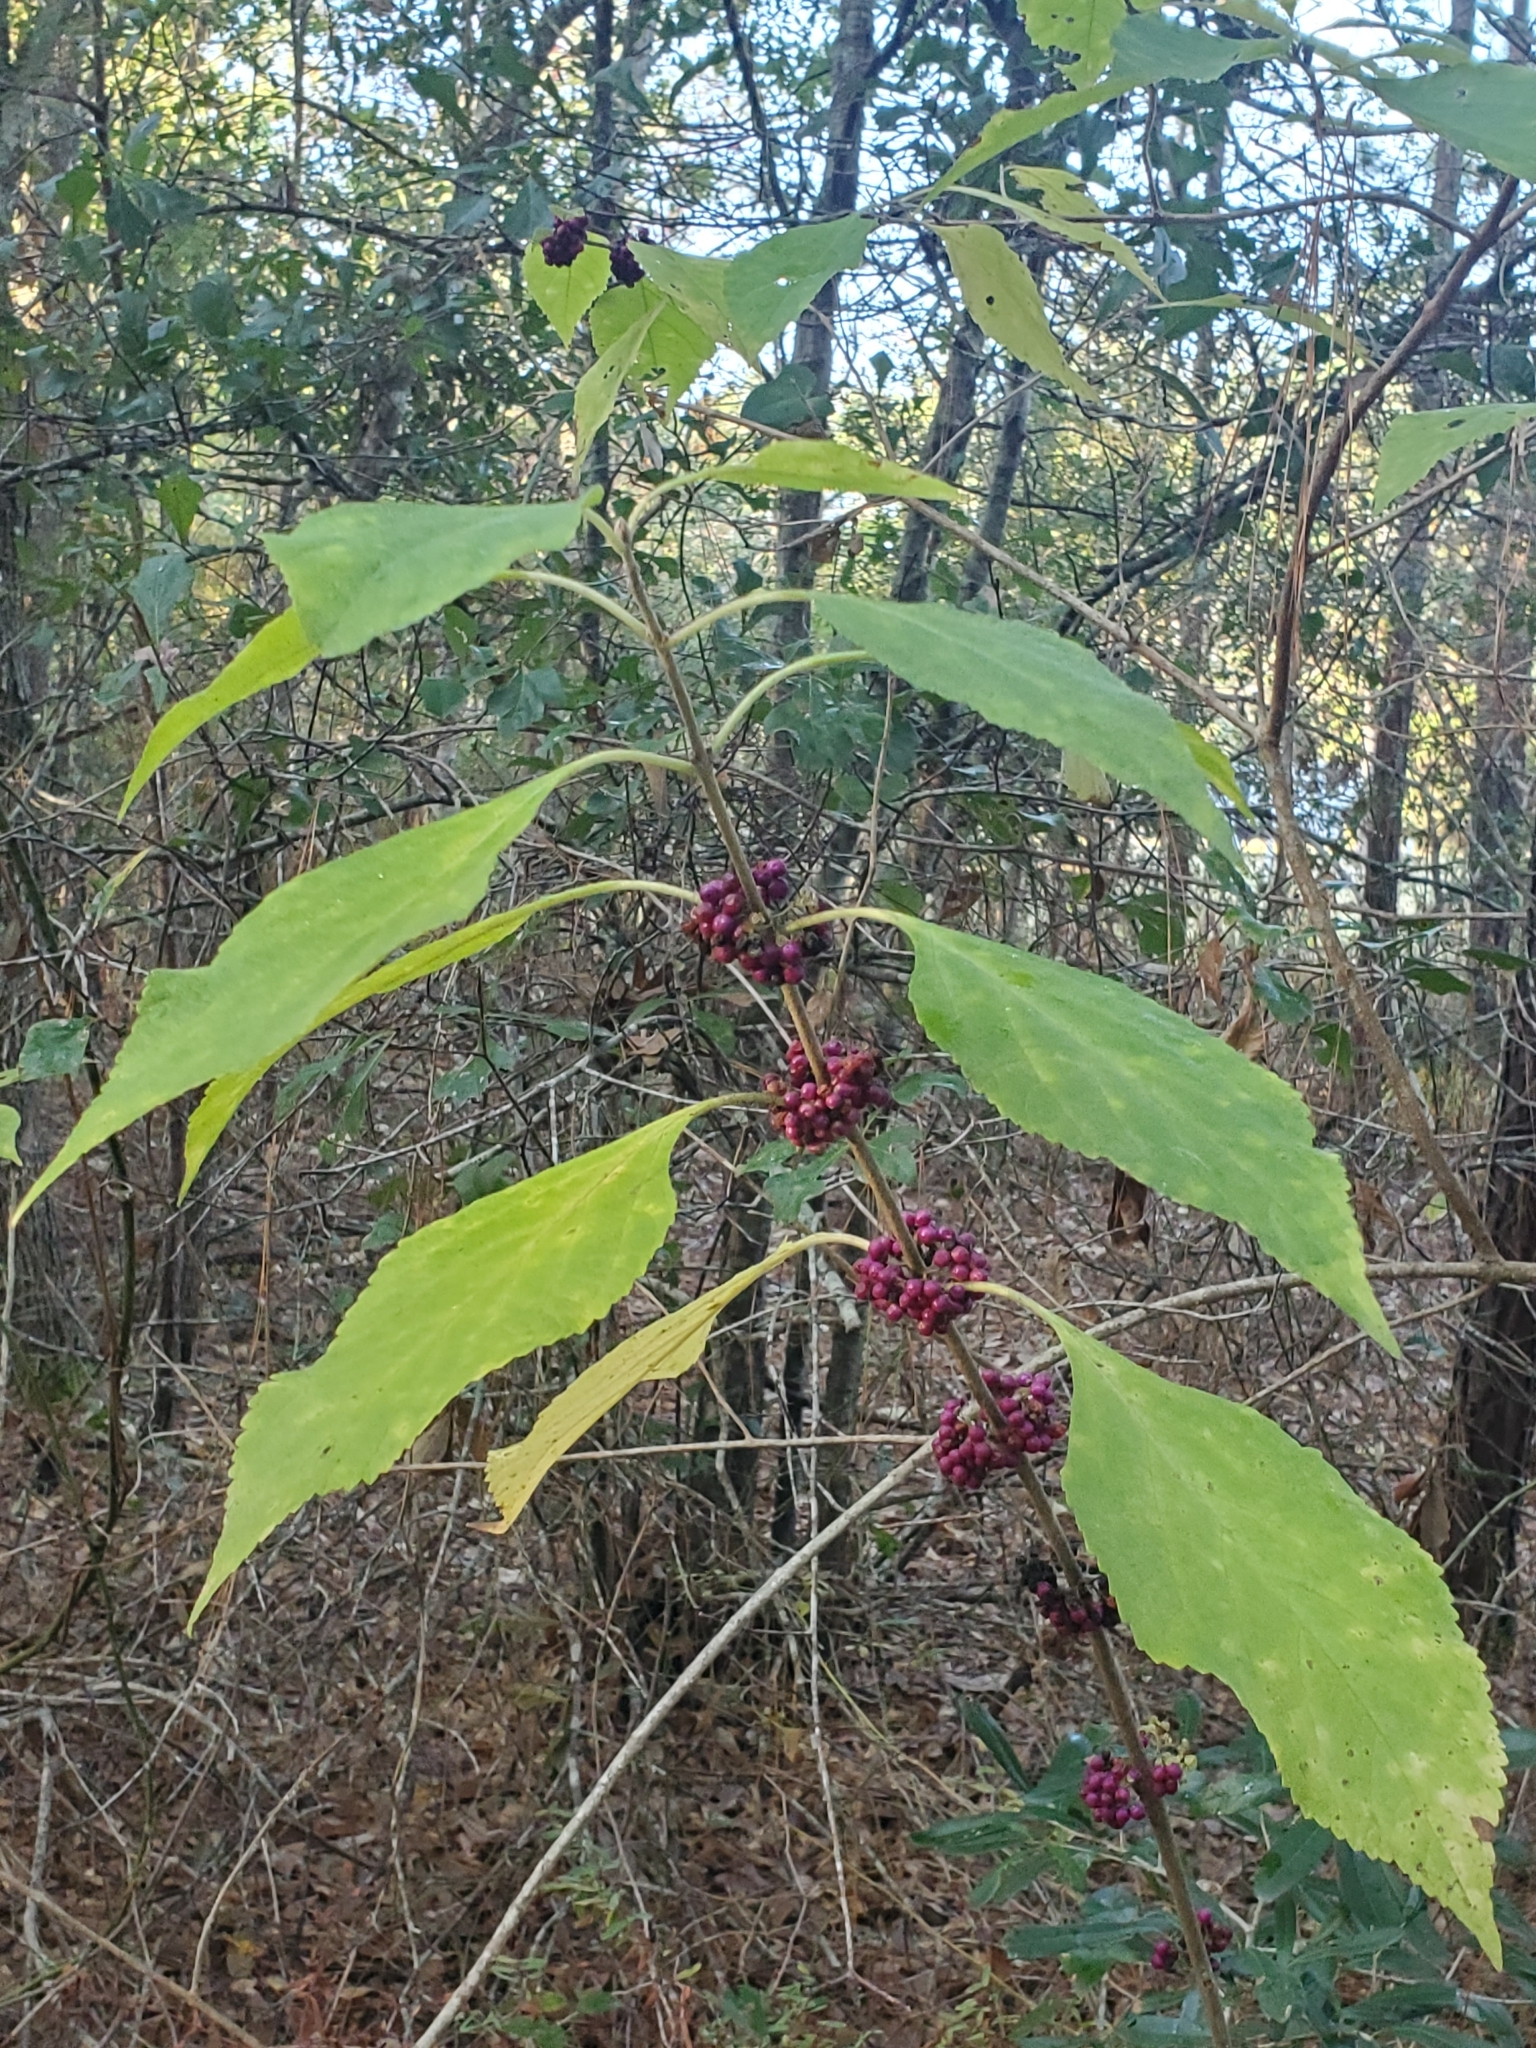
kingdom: Plantae
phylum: Tracheophyta
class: Magnoliopsida
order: Lamiales
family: Lamiaceae
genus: Callicarpa
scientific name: Callicarpa americana
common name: American beautyberry
